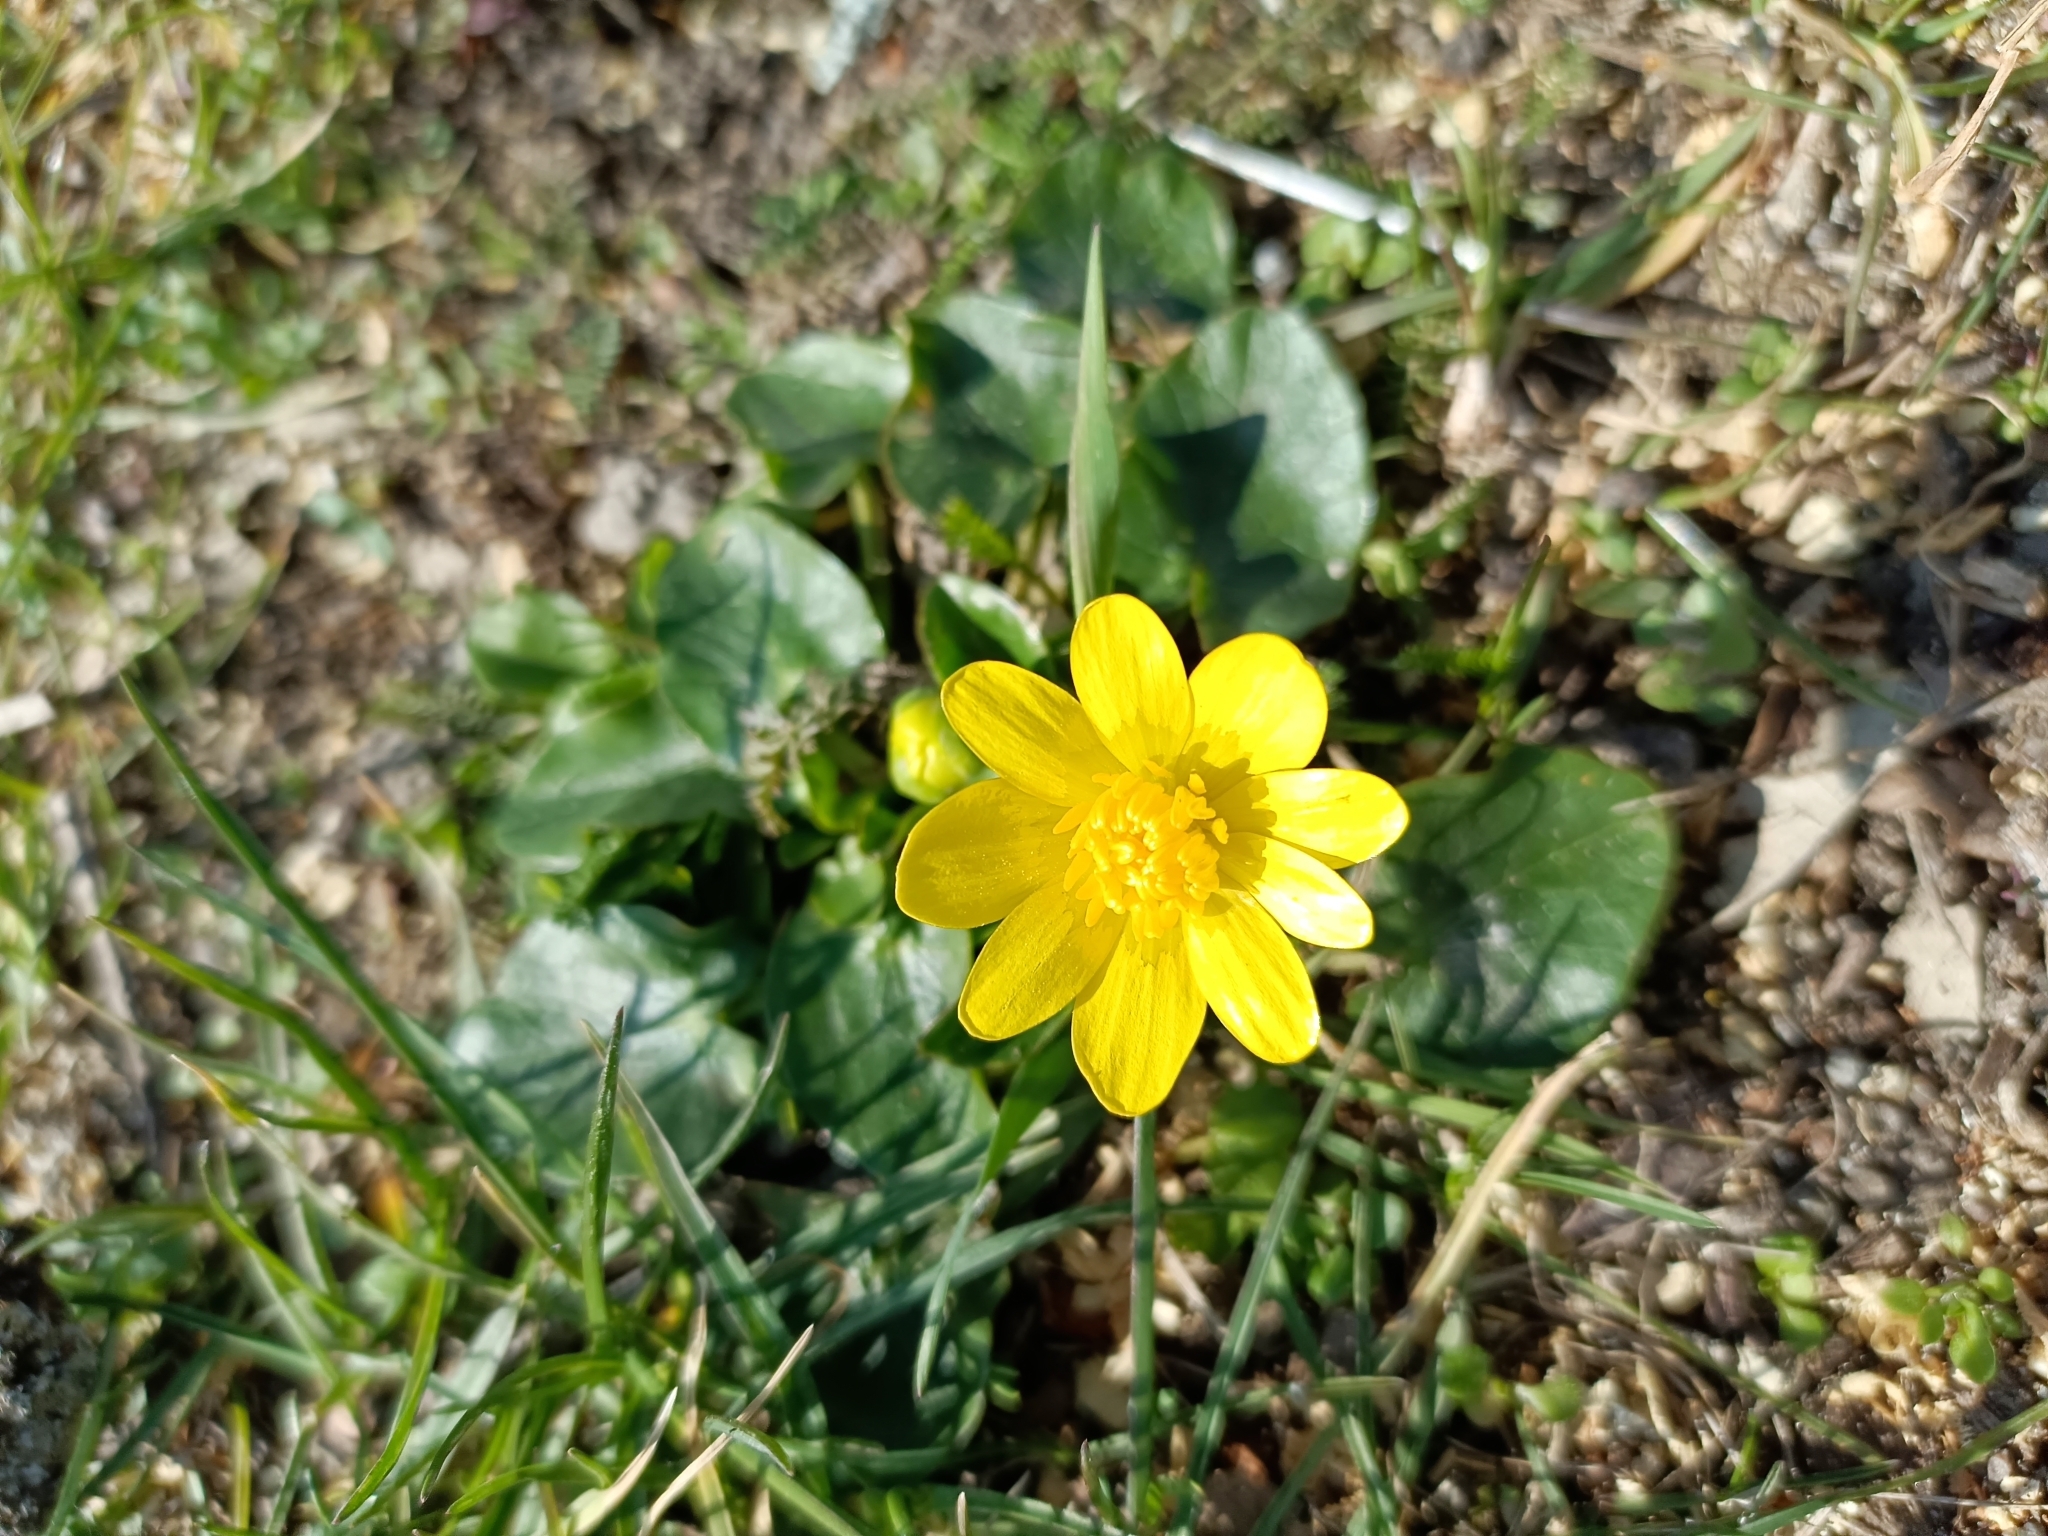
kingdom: Plantae
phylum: Tracheophyta
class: Magnoliopsida
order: Ranunculales
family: Ranunculaceae
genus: Ficaria
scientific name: Ficaria verna
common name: Lesser celandine
